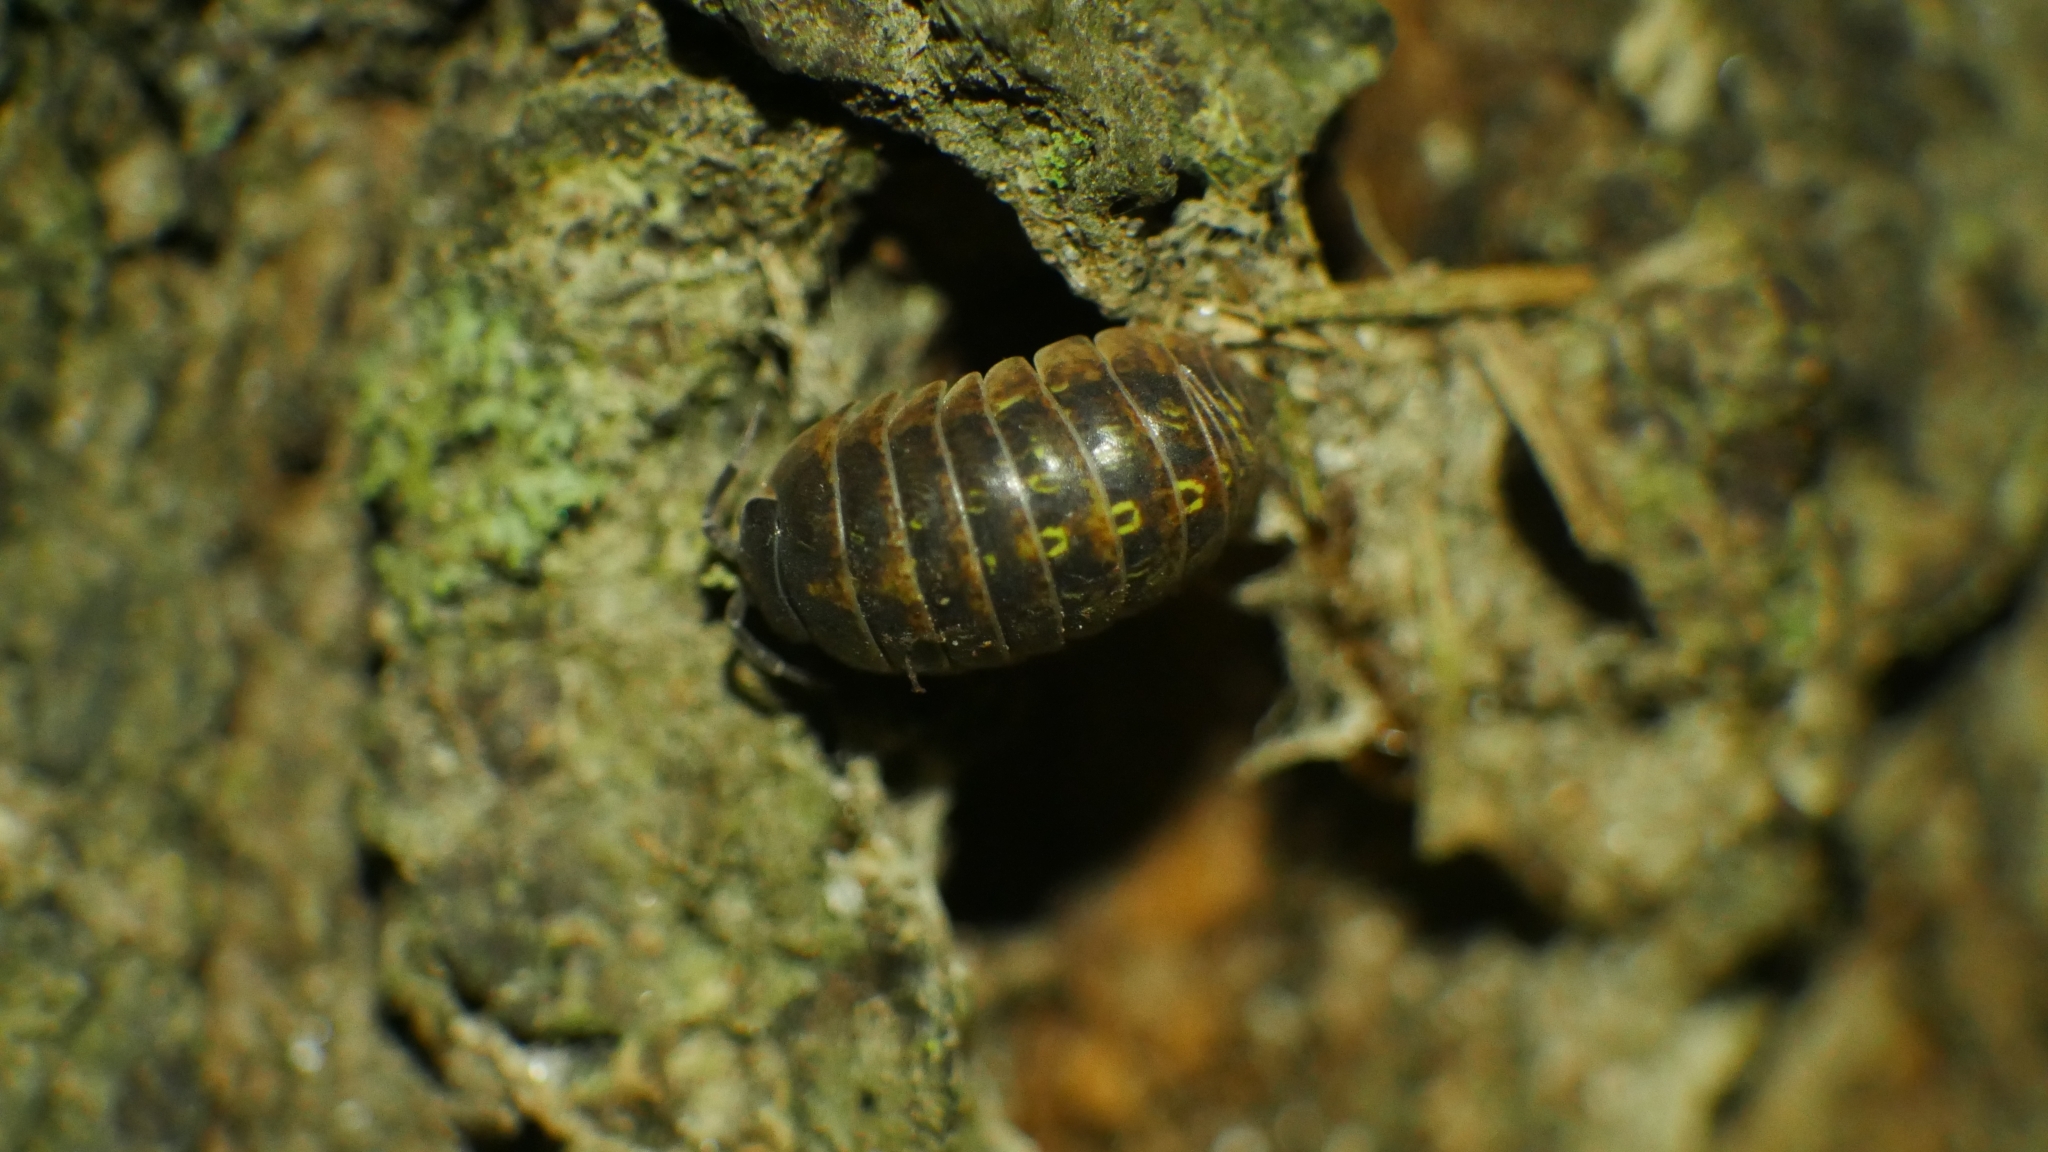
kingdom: Animalia
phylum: Arthropoda
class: Malacostraca
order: Isopoda
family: Armadillidiidae
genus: Armadillidium
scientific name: Armadillidium vulgare
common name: Common pill woodlouse
